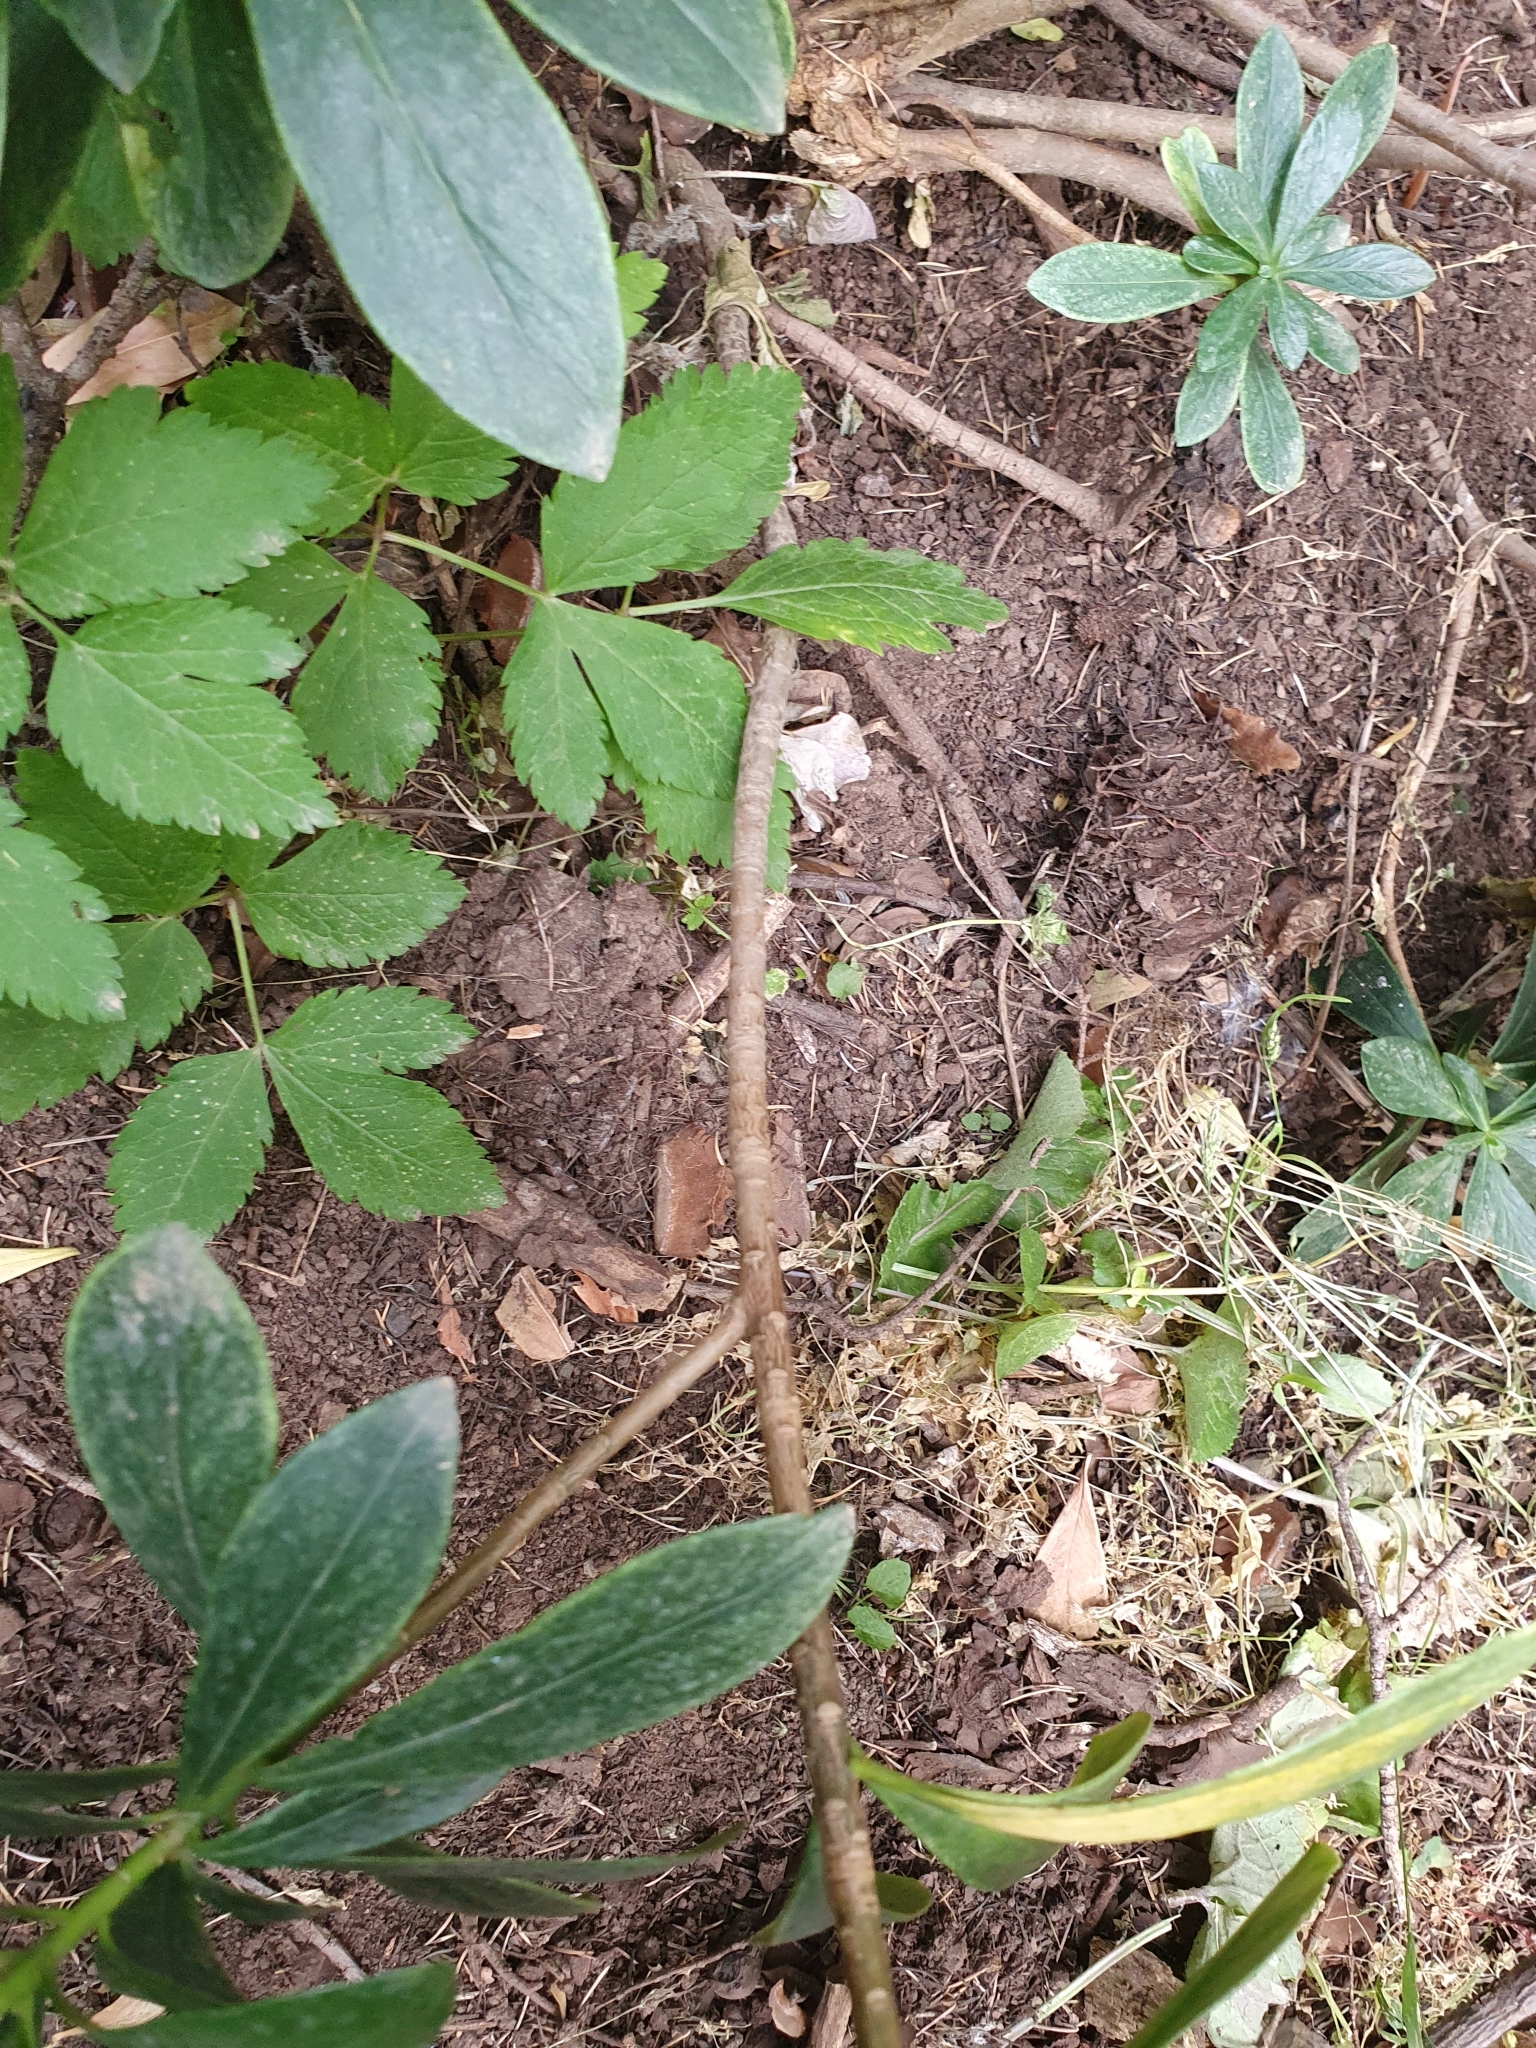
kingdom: Plantae
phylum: Tracheophyta
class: Magnoliopsida
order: Malvales
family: Thymelaeaceae
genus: Daphne
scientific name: Daphne laureola
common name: Spurge-laurel
